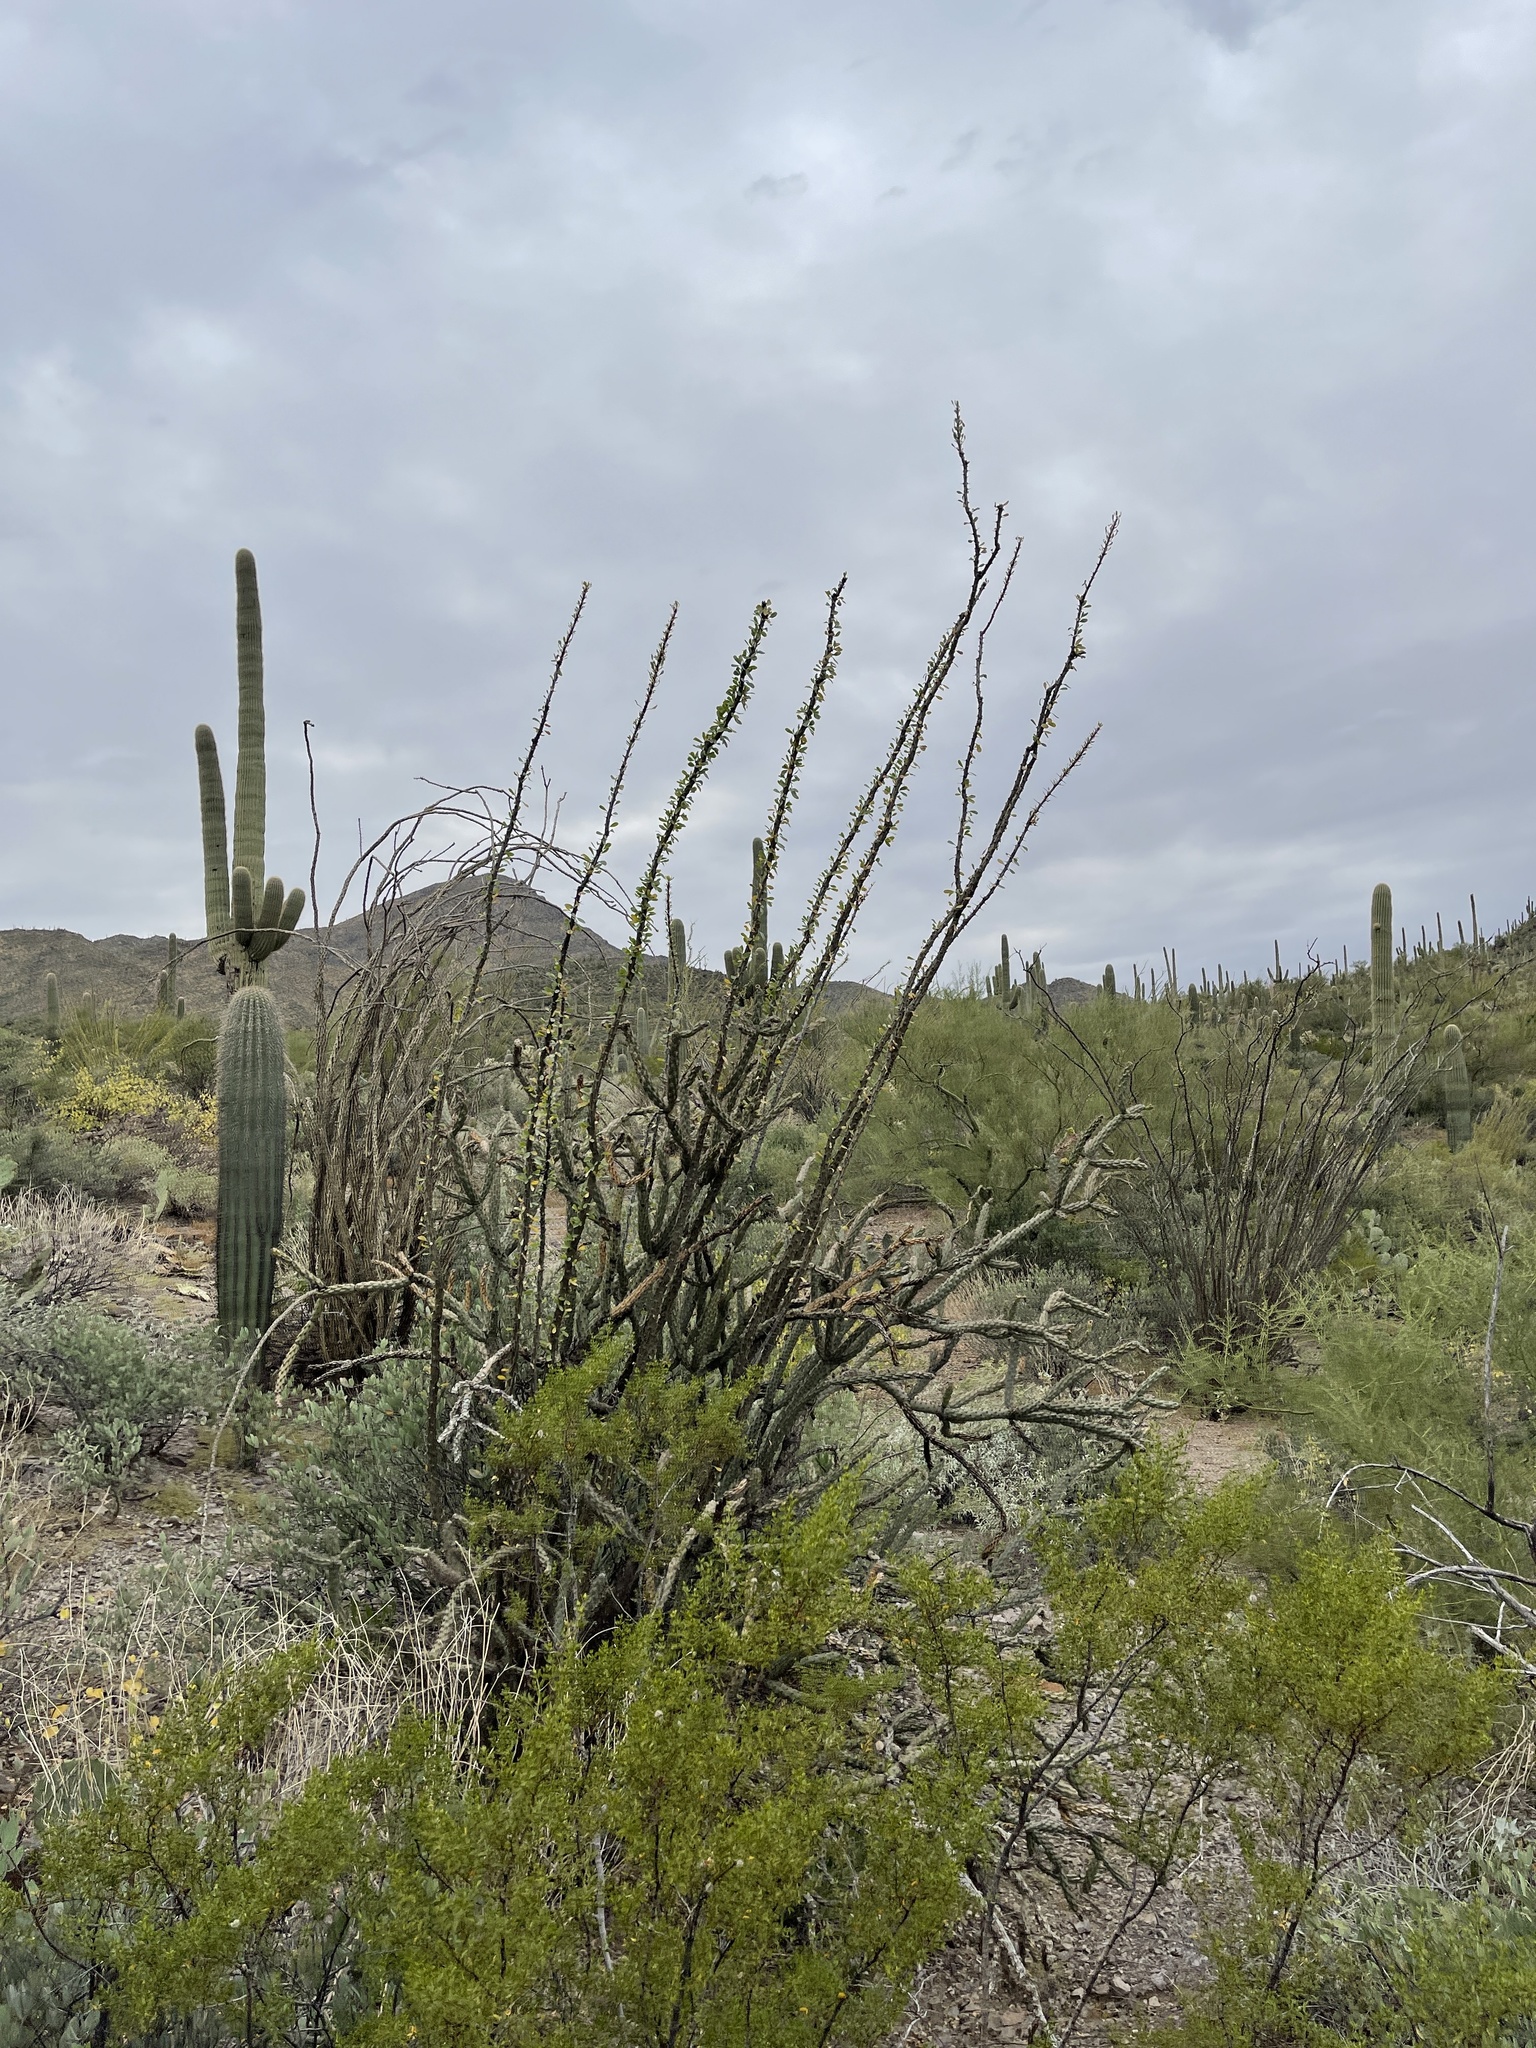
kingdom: Plantae
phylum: Tracheophyta
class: Magnoliopsida
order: Ericales
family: Fouquieriaceae
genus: Fouquieria
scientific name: Fouquieria splendens
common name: Vine-cactus
